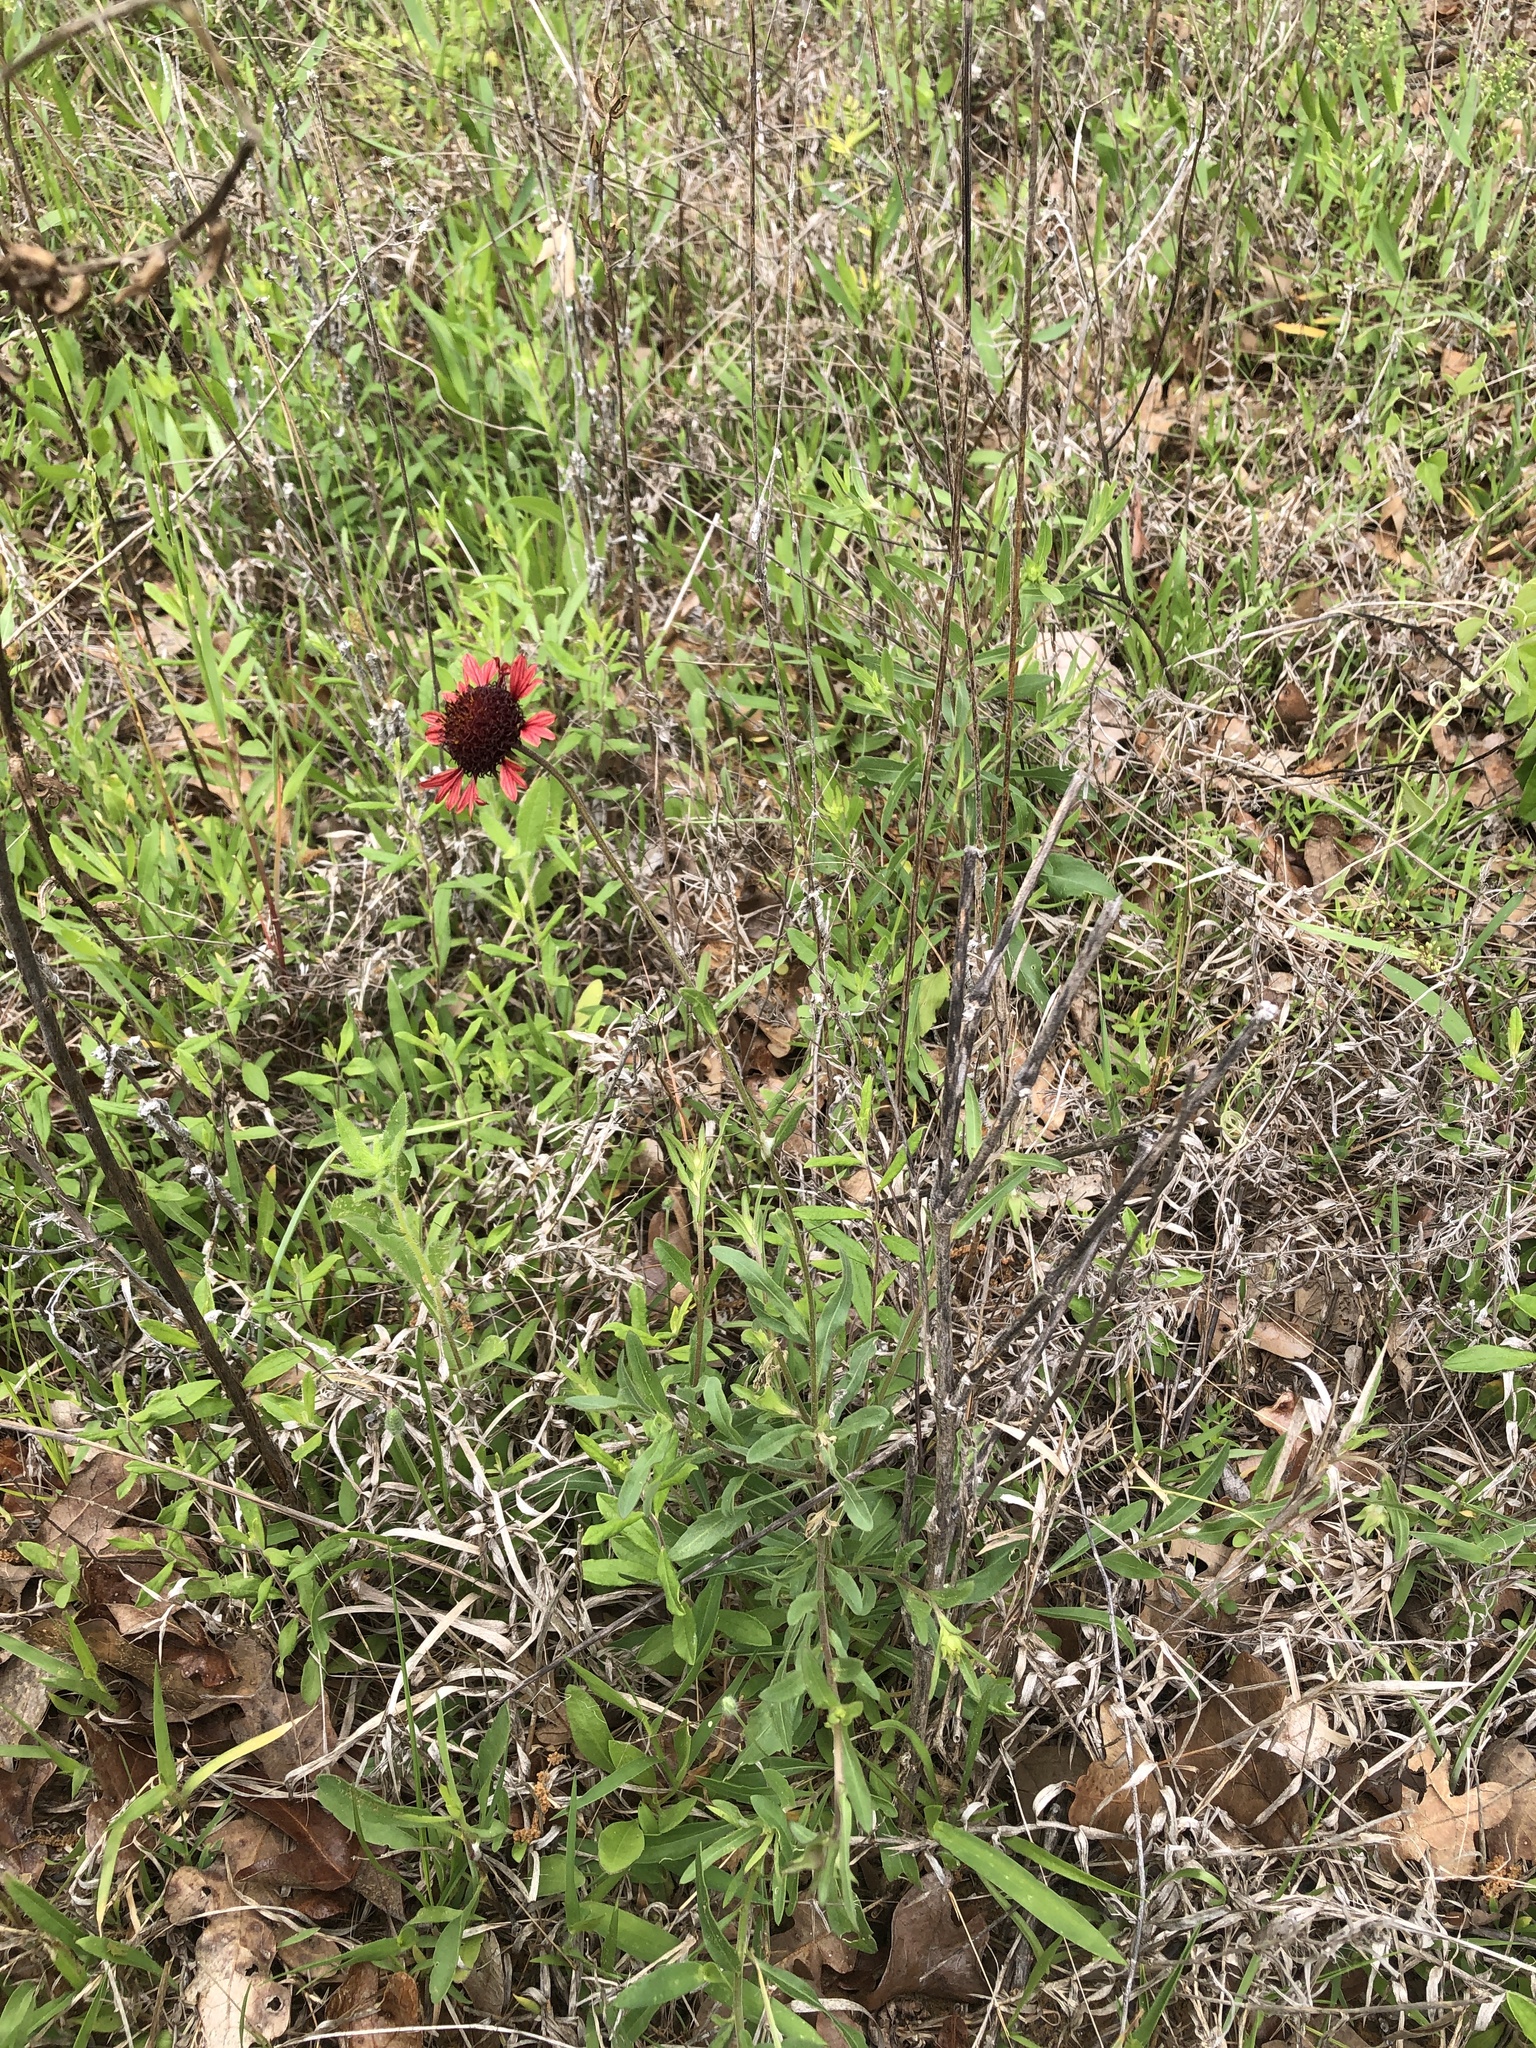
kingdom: Plantae
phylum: Tracheophyta
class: Magnoliopsida
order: Asterales
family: Asteraceae
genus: Gaillardia
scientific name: Gaillardia aestivalis
